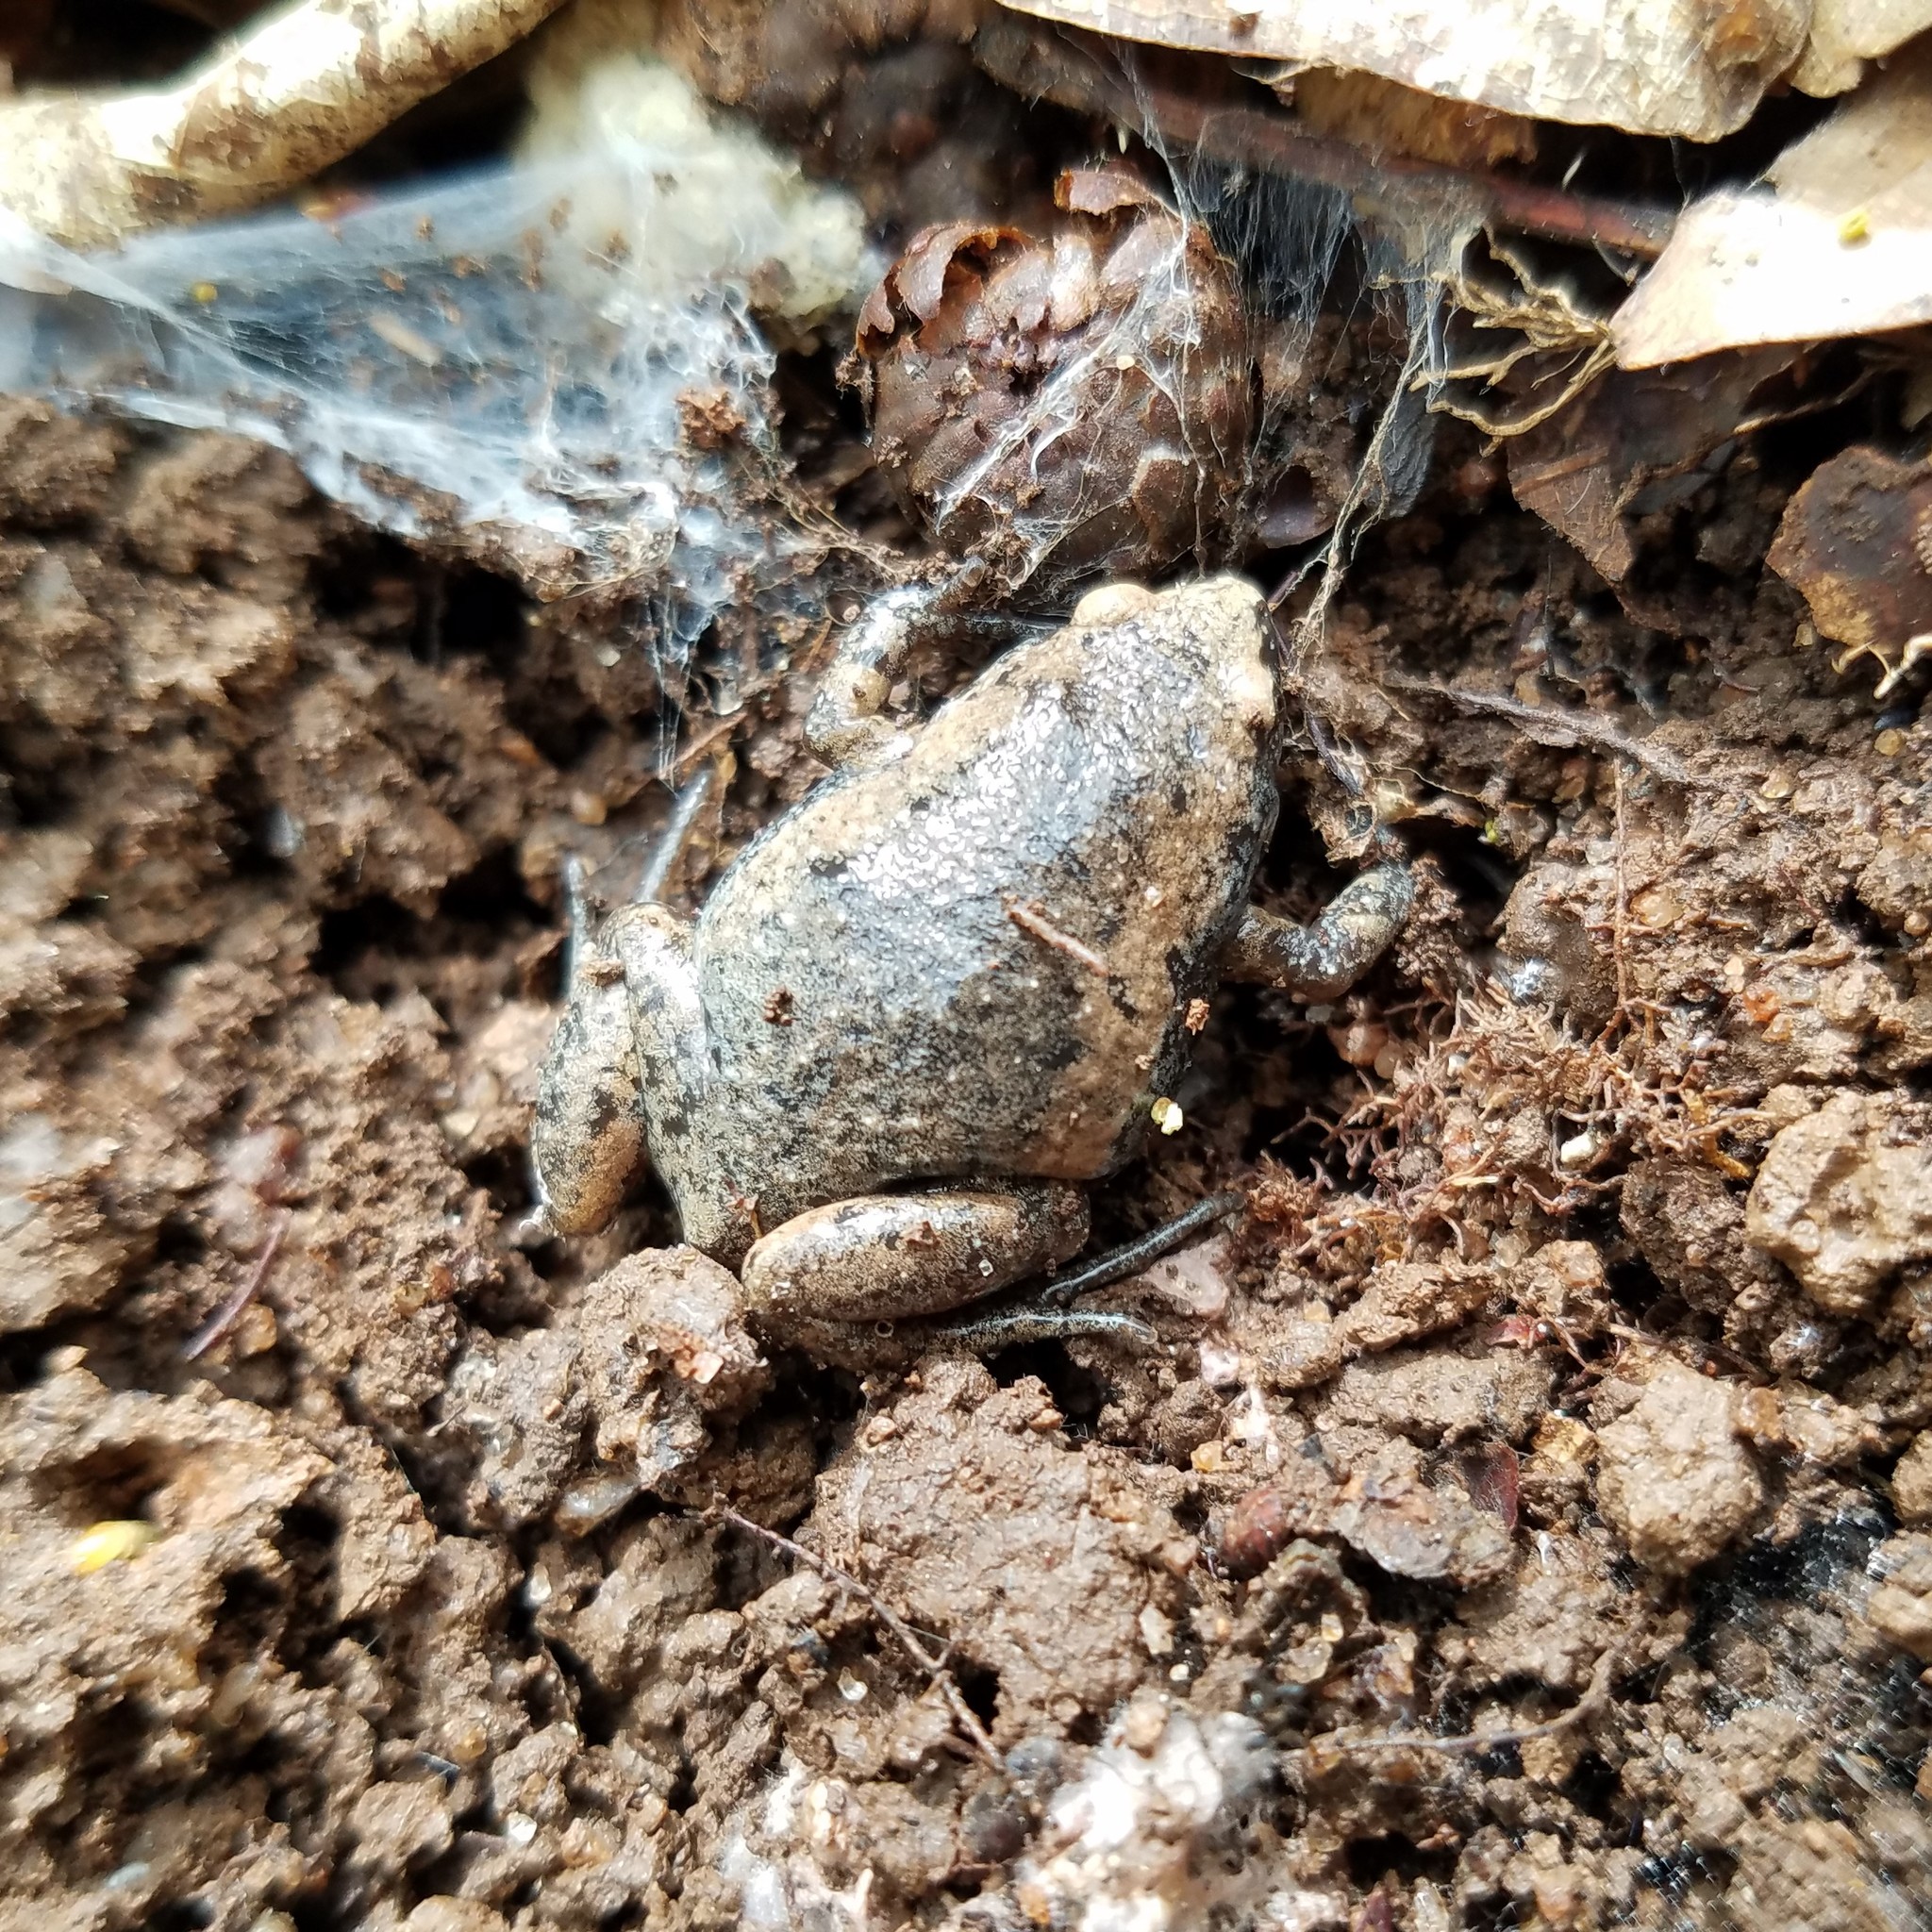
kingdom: Animalia
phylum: Chordata
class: Amphibia
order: Anura
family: Microhylidae
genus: Gastrophryne
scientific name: Gastrophryne carolinensis
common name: Eastern narrowmouth toad
